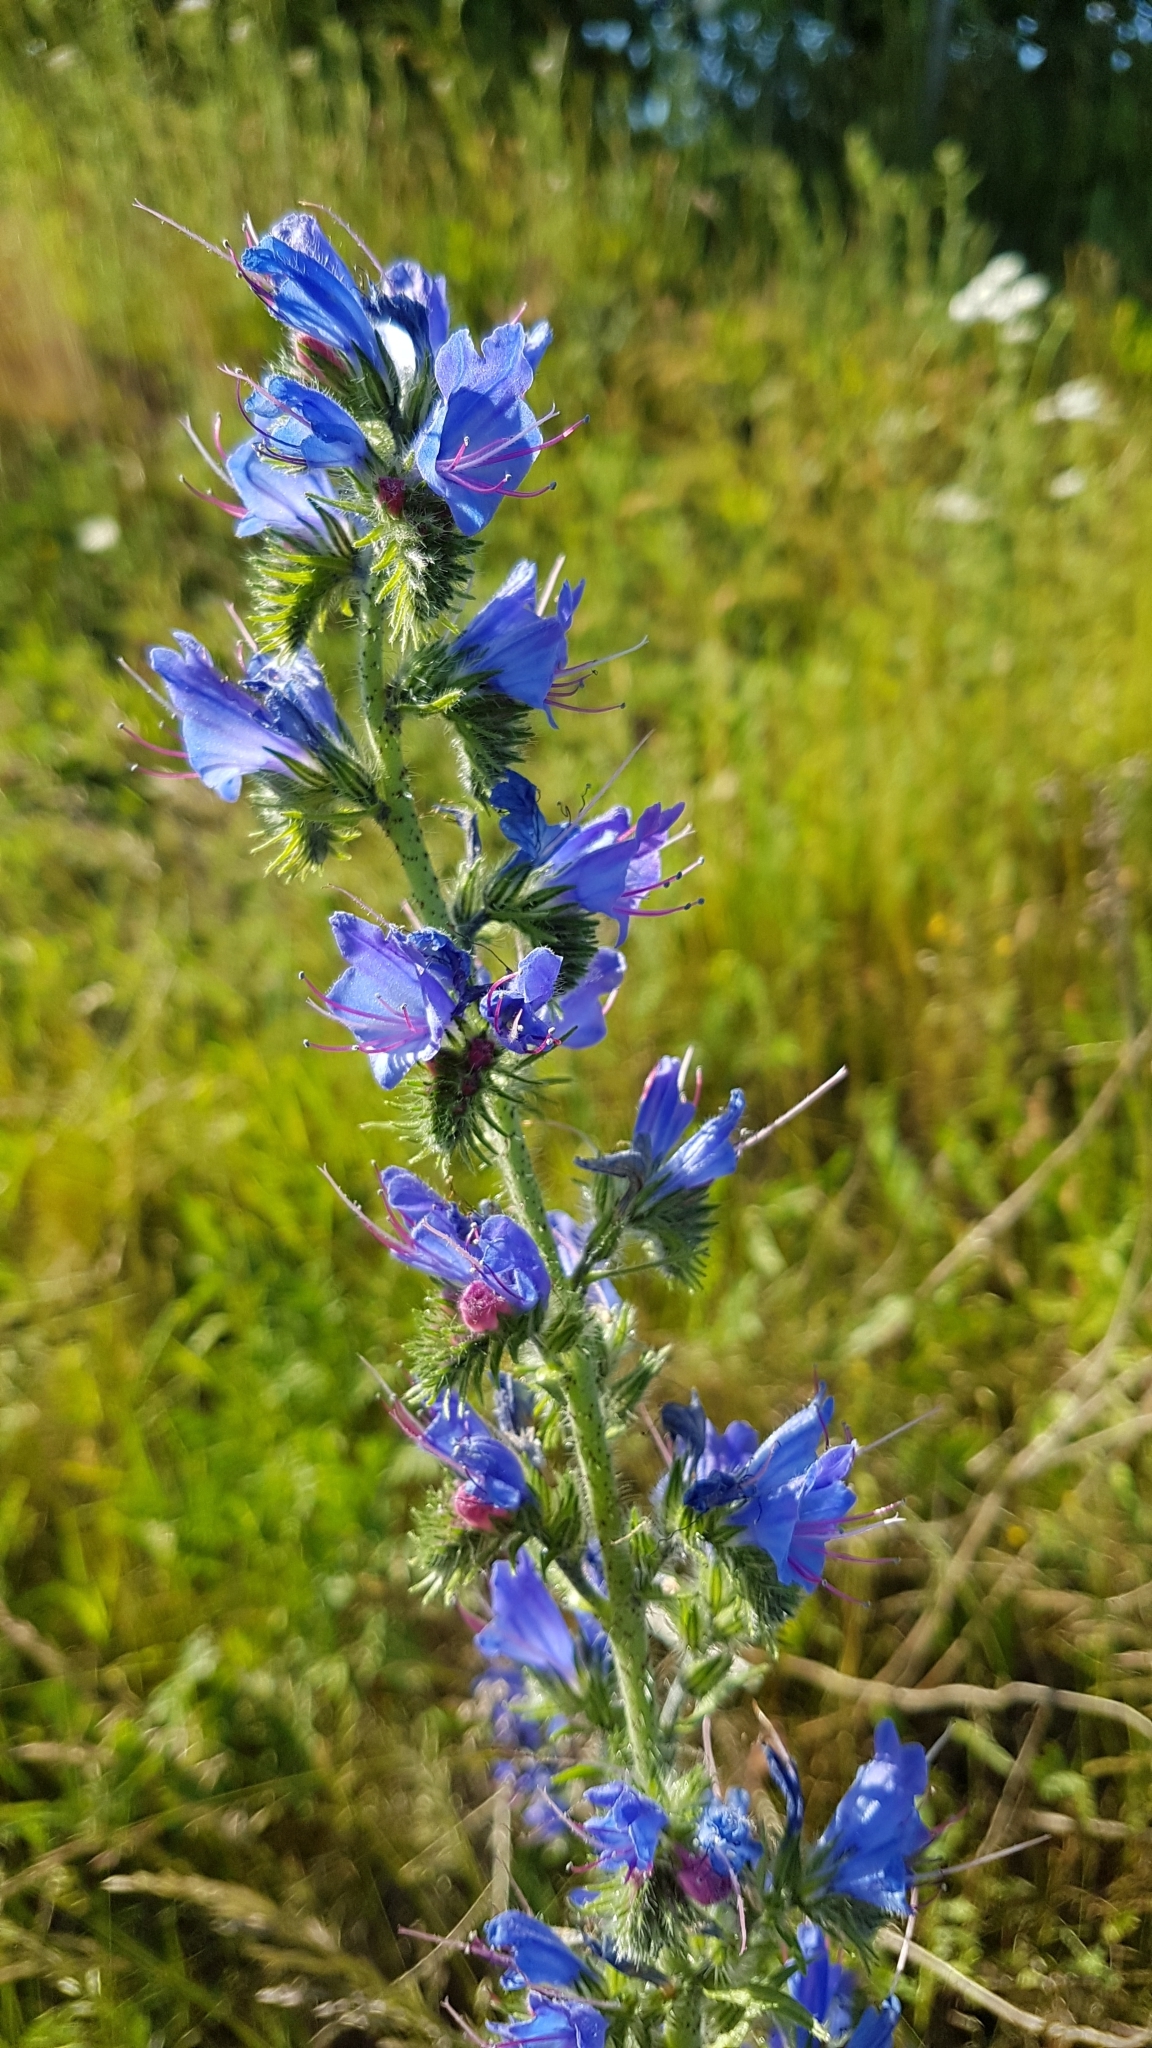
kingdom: Plantae
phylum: Tracheophyta
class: Magnoliopsida
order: Boraginales
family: Boraginaceae
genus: Echium
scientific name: Echium vulgare
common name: Common viper's bugloss
